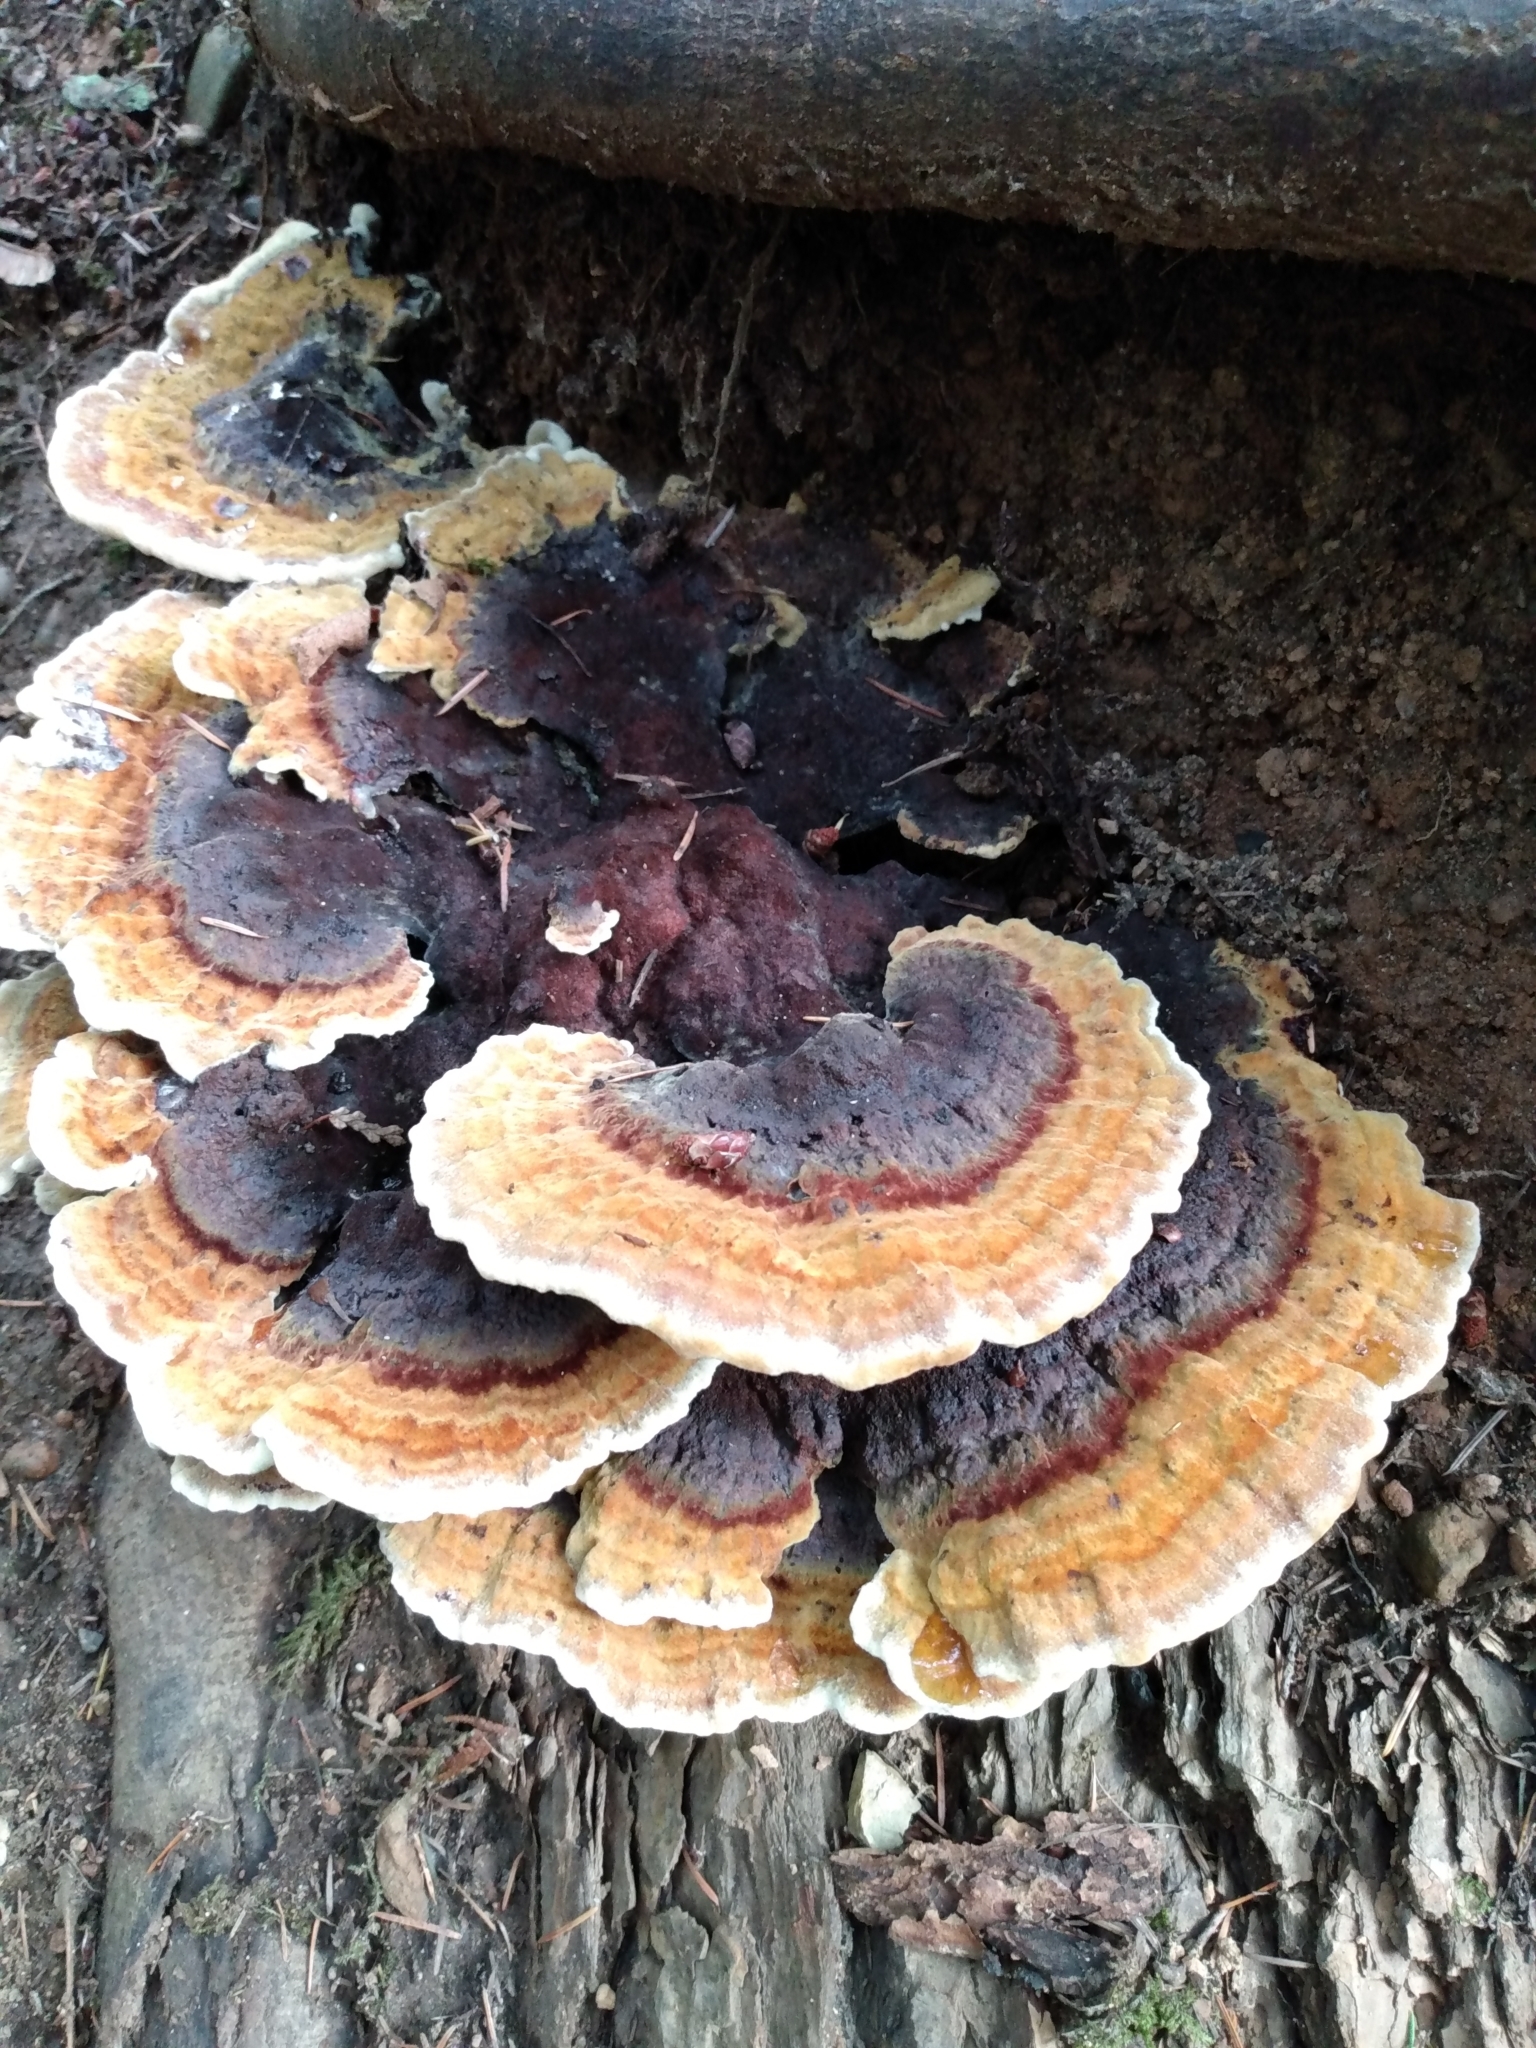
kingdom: Fungi
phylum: Basidiomycota
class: Agaricomycetes
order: Polyporales
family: Laetiporaceae
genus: Phaeolus
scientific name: Phaeolus schweinitzii
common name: Dyer's mazegill
